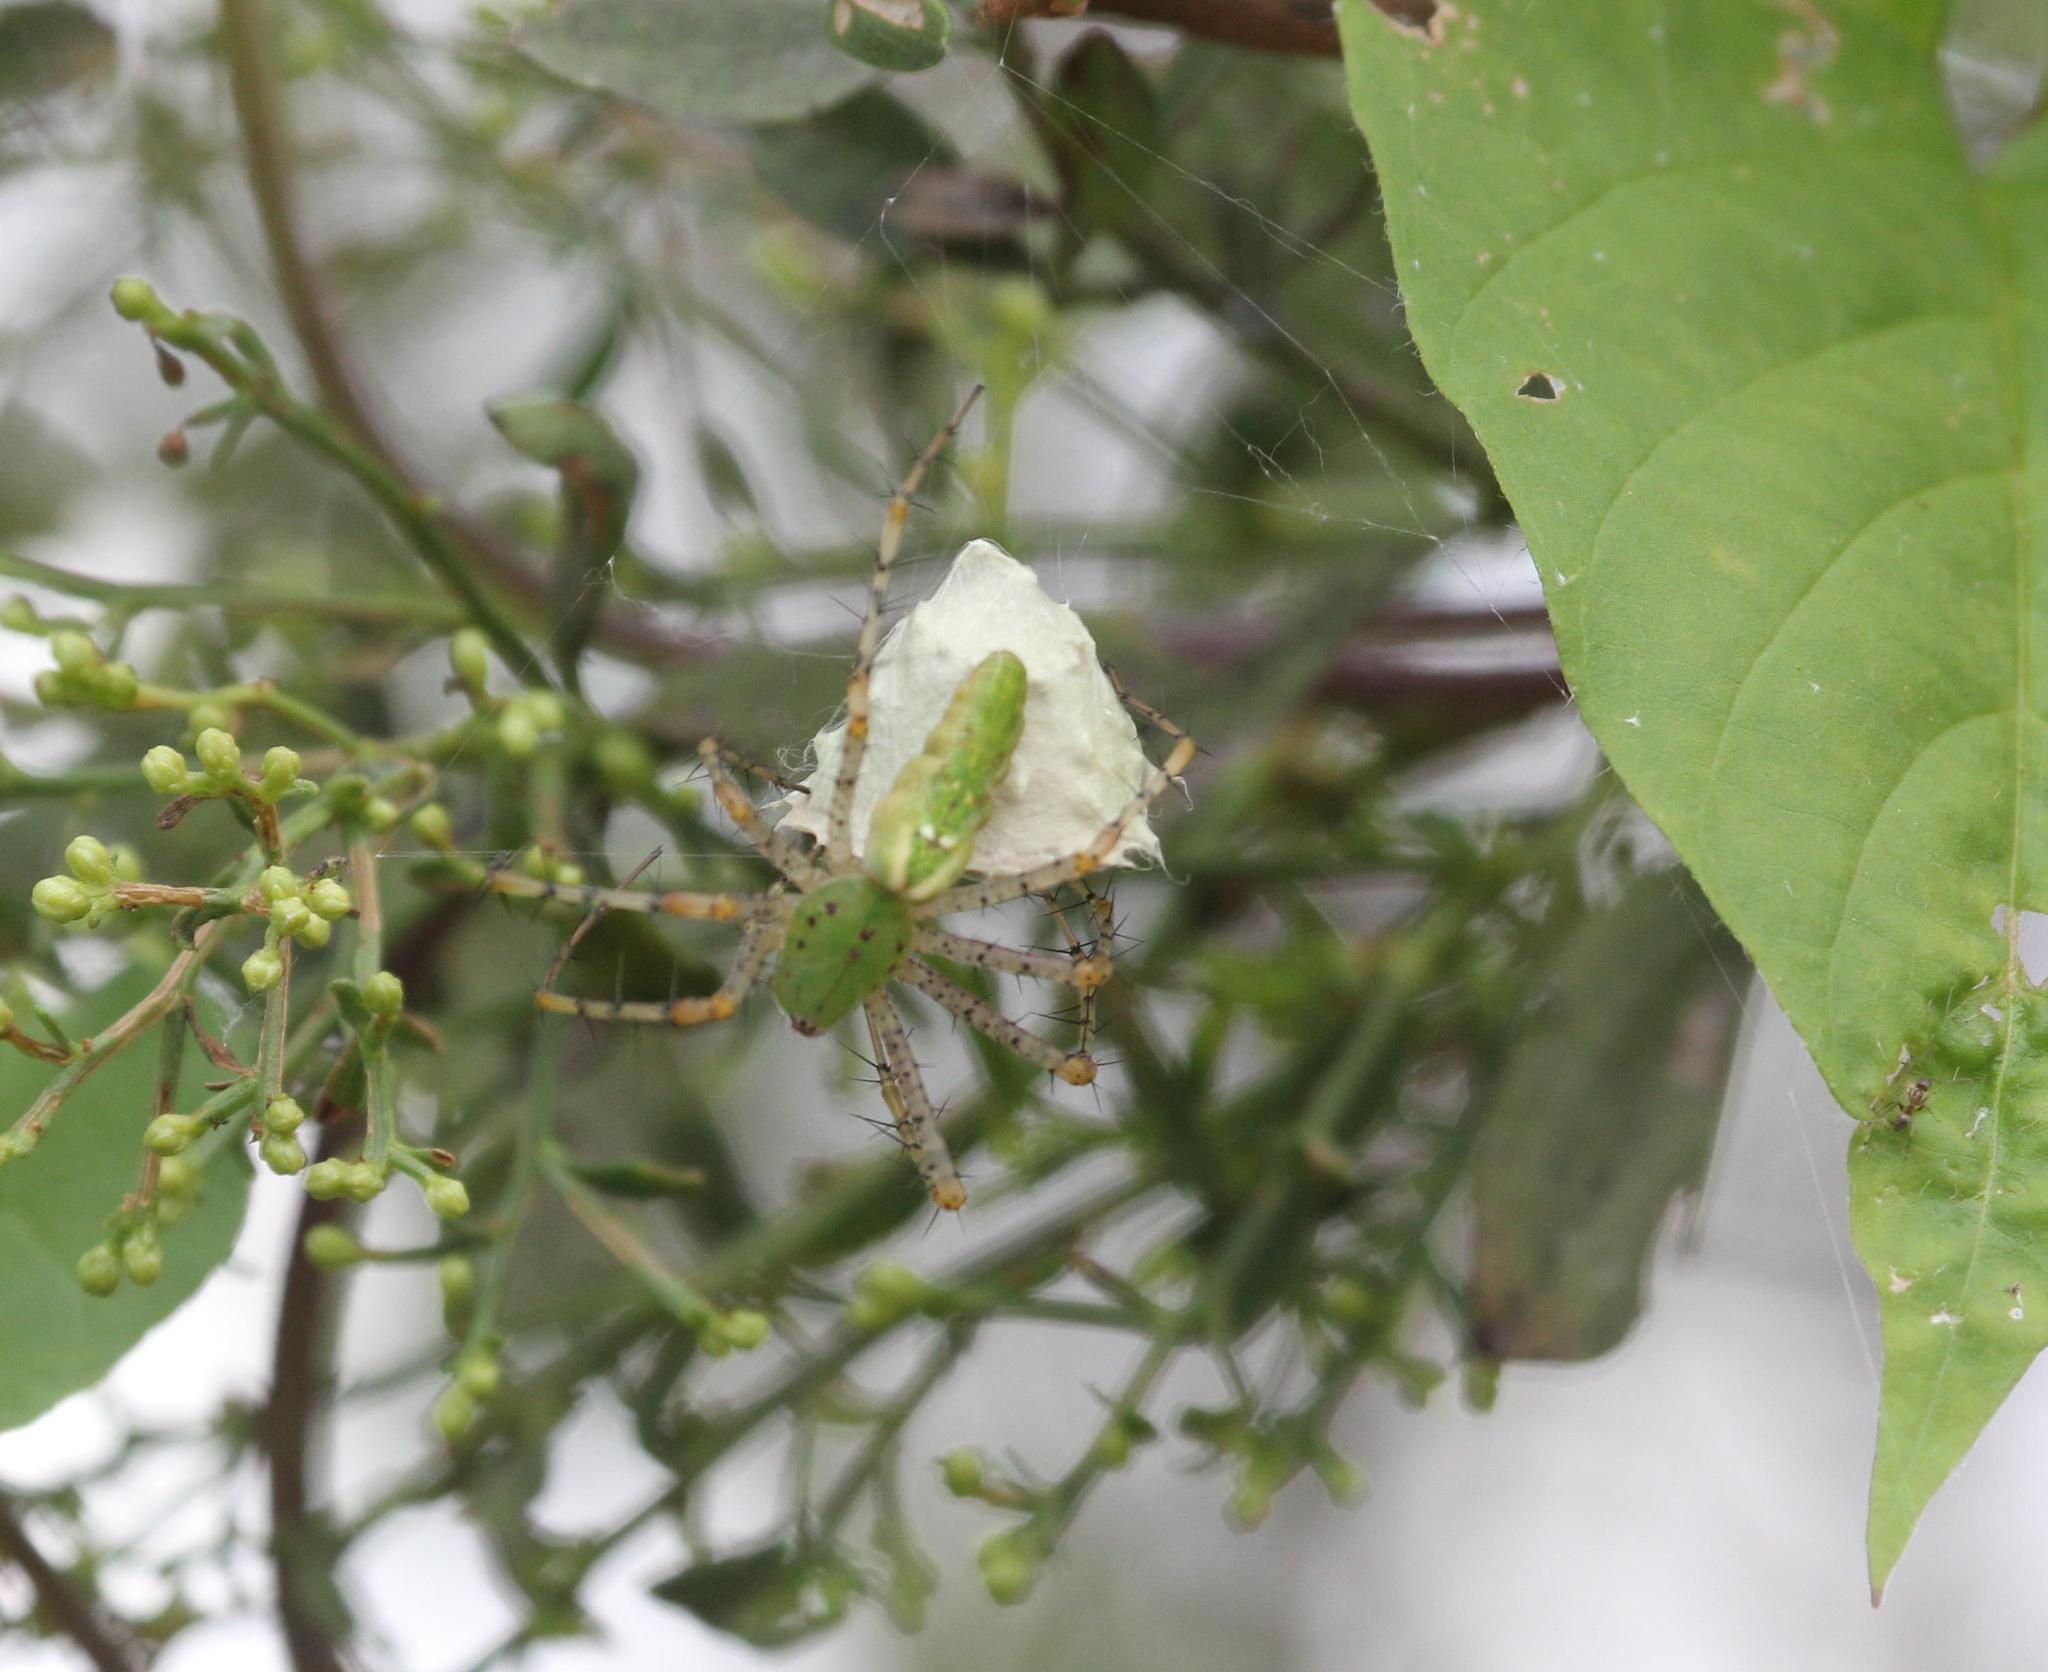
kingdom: Animalia
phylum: Arthropoda
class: Arachnida
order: Araneae
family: Oxyopidae
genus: Peucetia
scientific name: Peucetia viridans
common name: Lynx spiders
